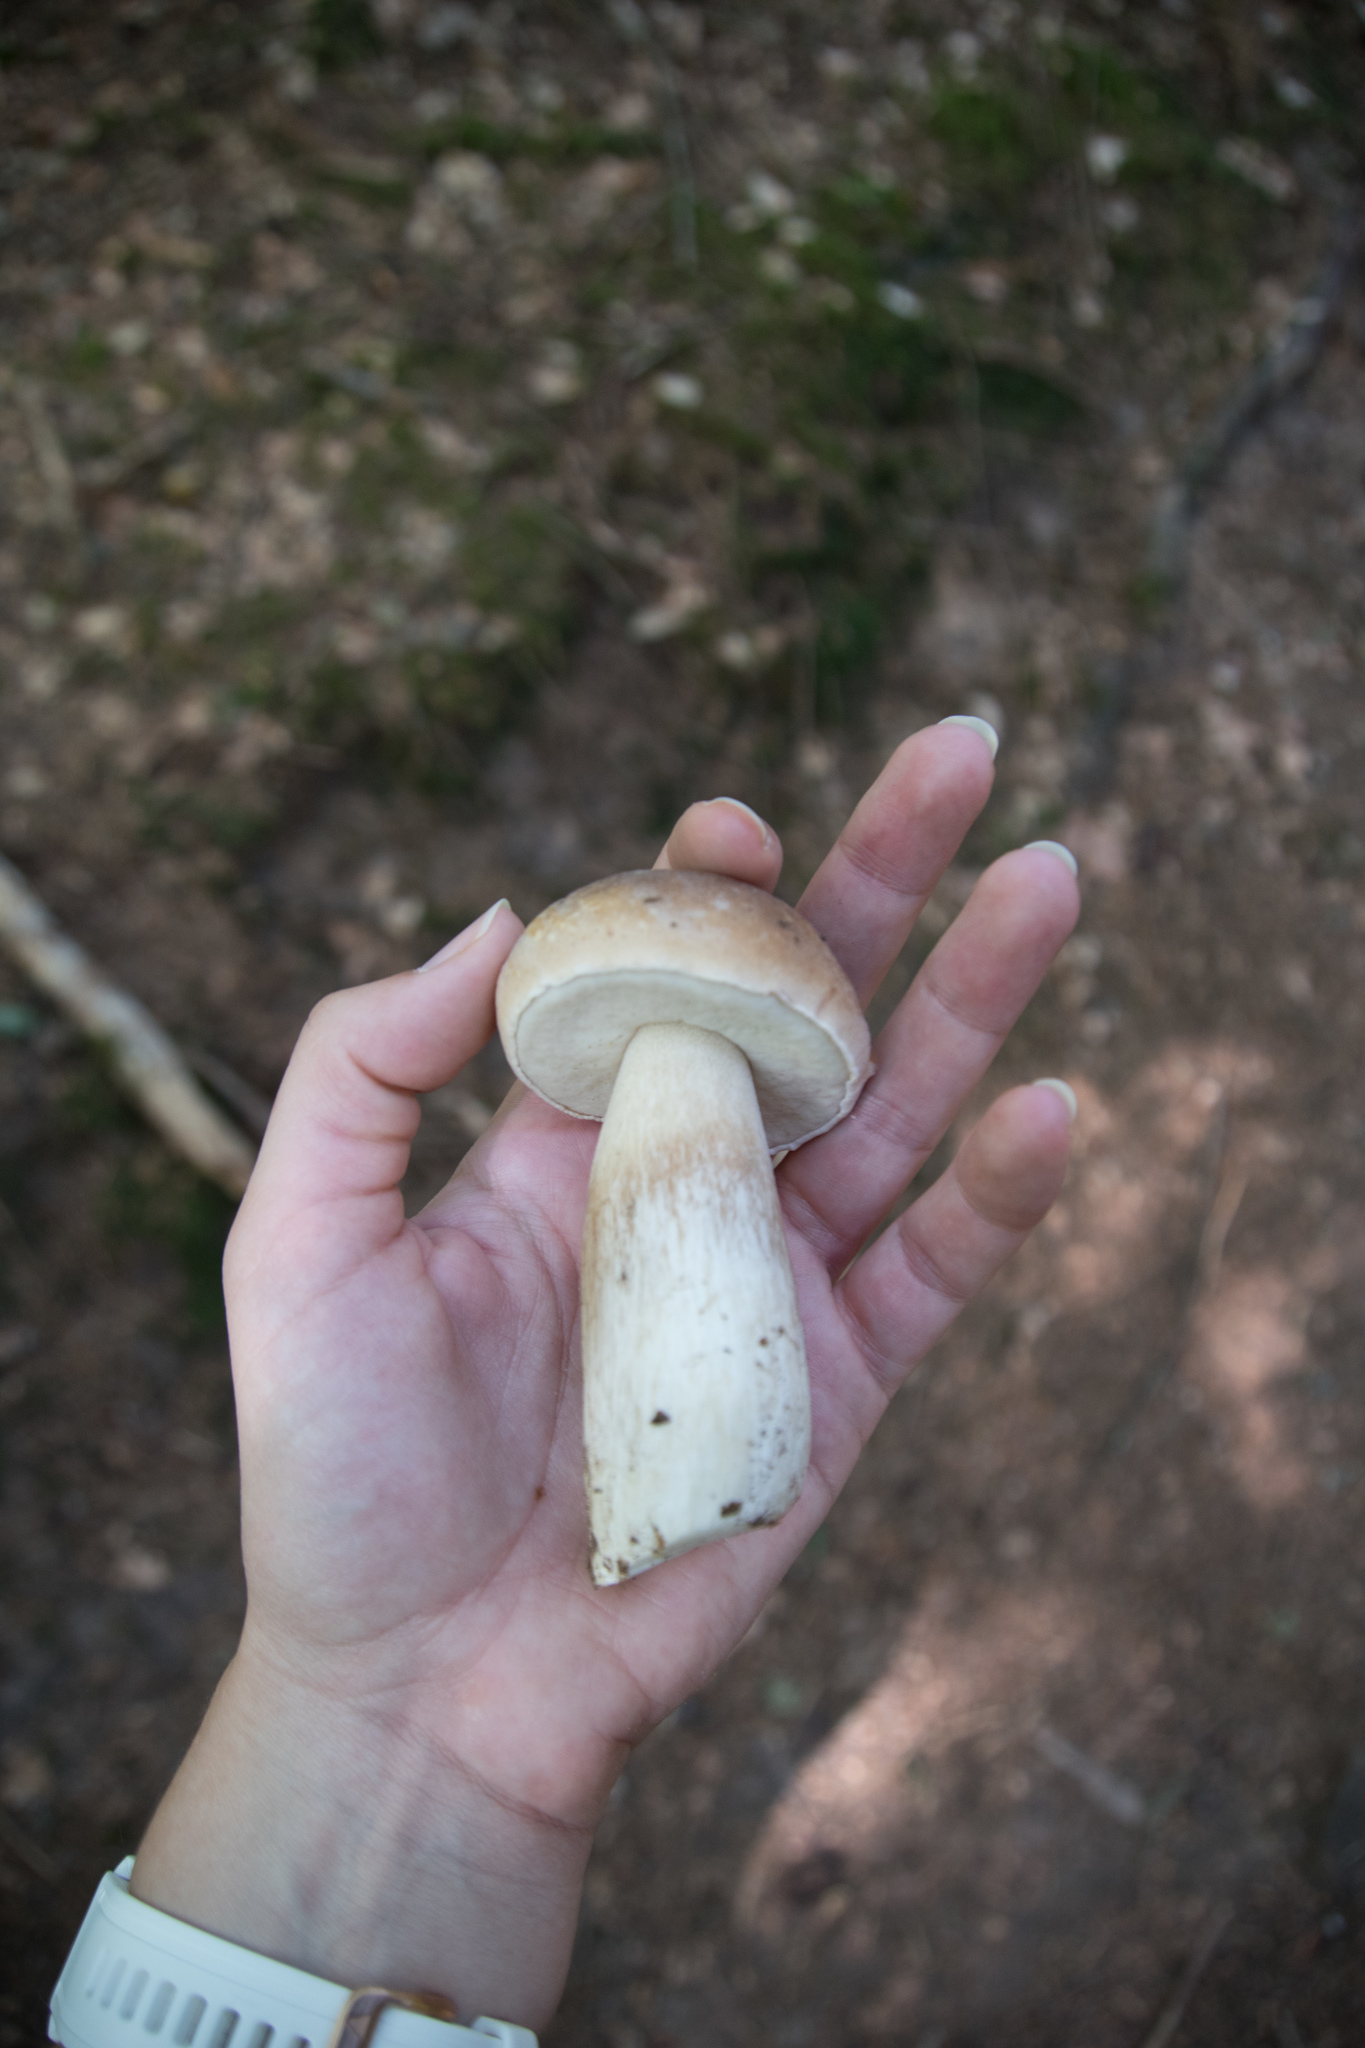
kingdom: Fungi
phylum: Basidiomycota
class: Agaricomycetes
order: Boletales
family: Boletaceae
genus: Boletus
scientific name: Boletus edulis
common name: Cep
